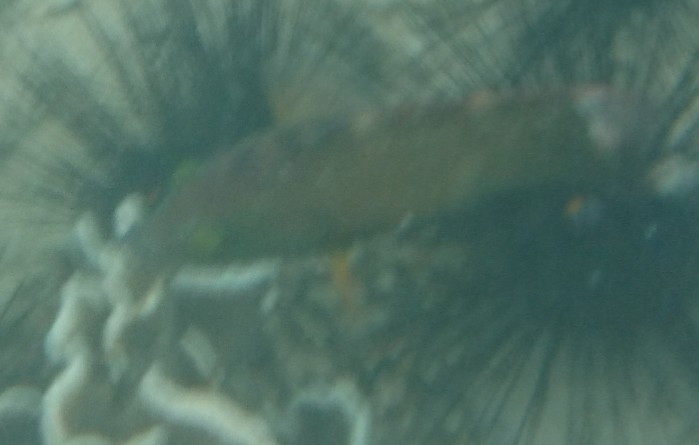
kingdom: Animalia
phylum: Chordata
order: Perciformes
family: Labridae
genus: Cheilinus
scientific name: Cheilinus chlorourus
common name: Floral wrasse
